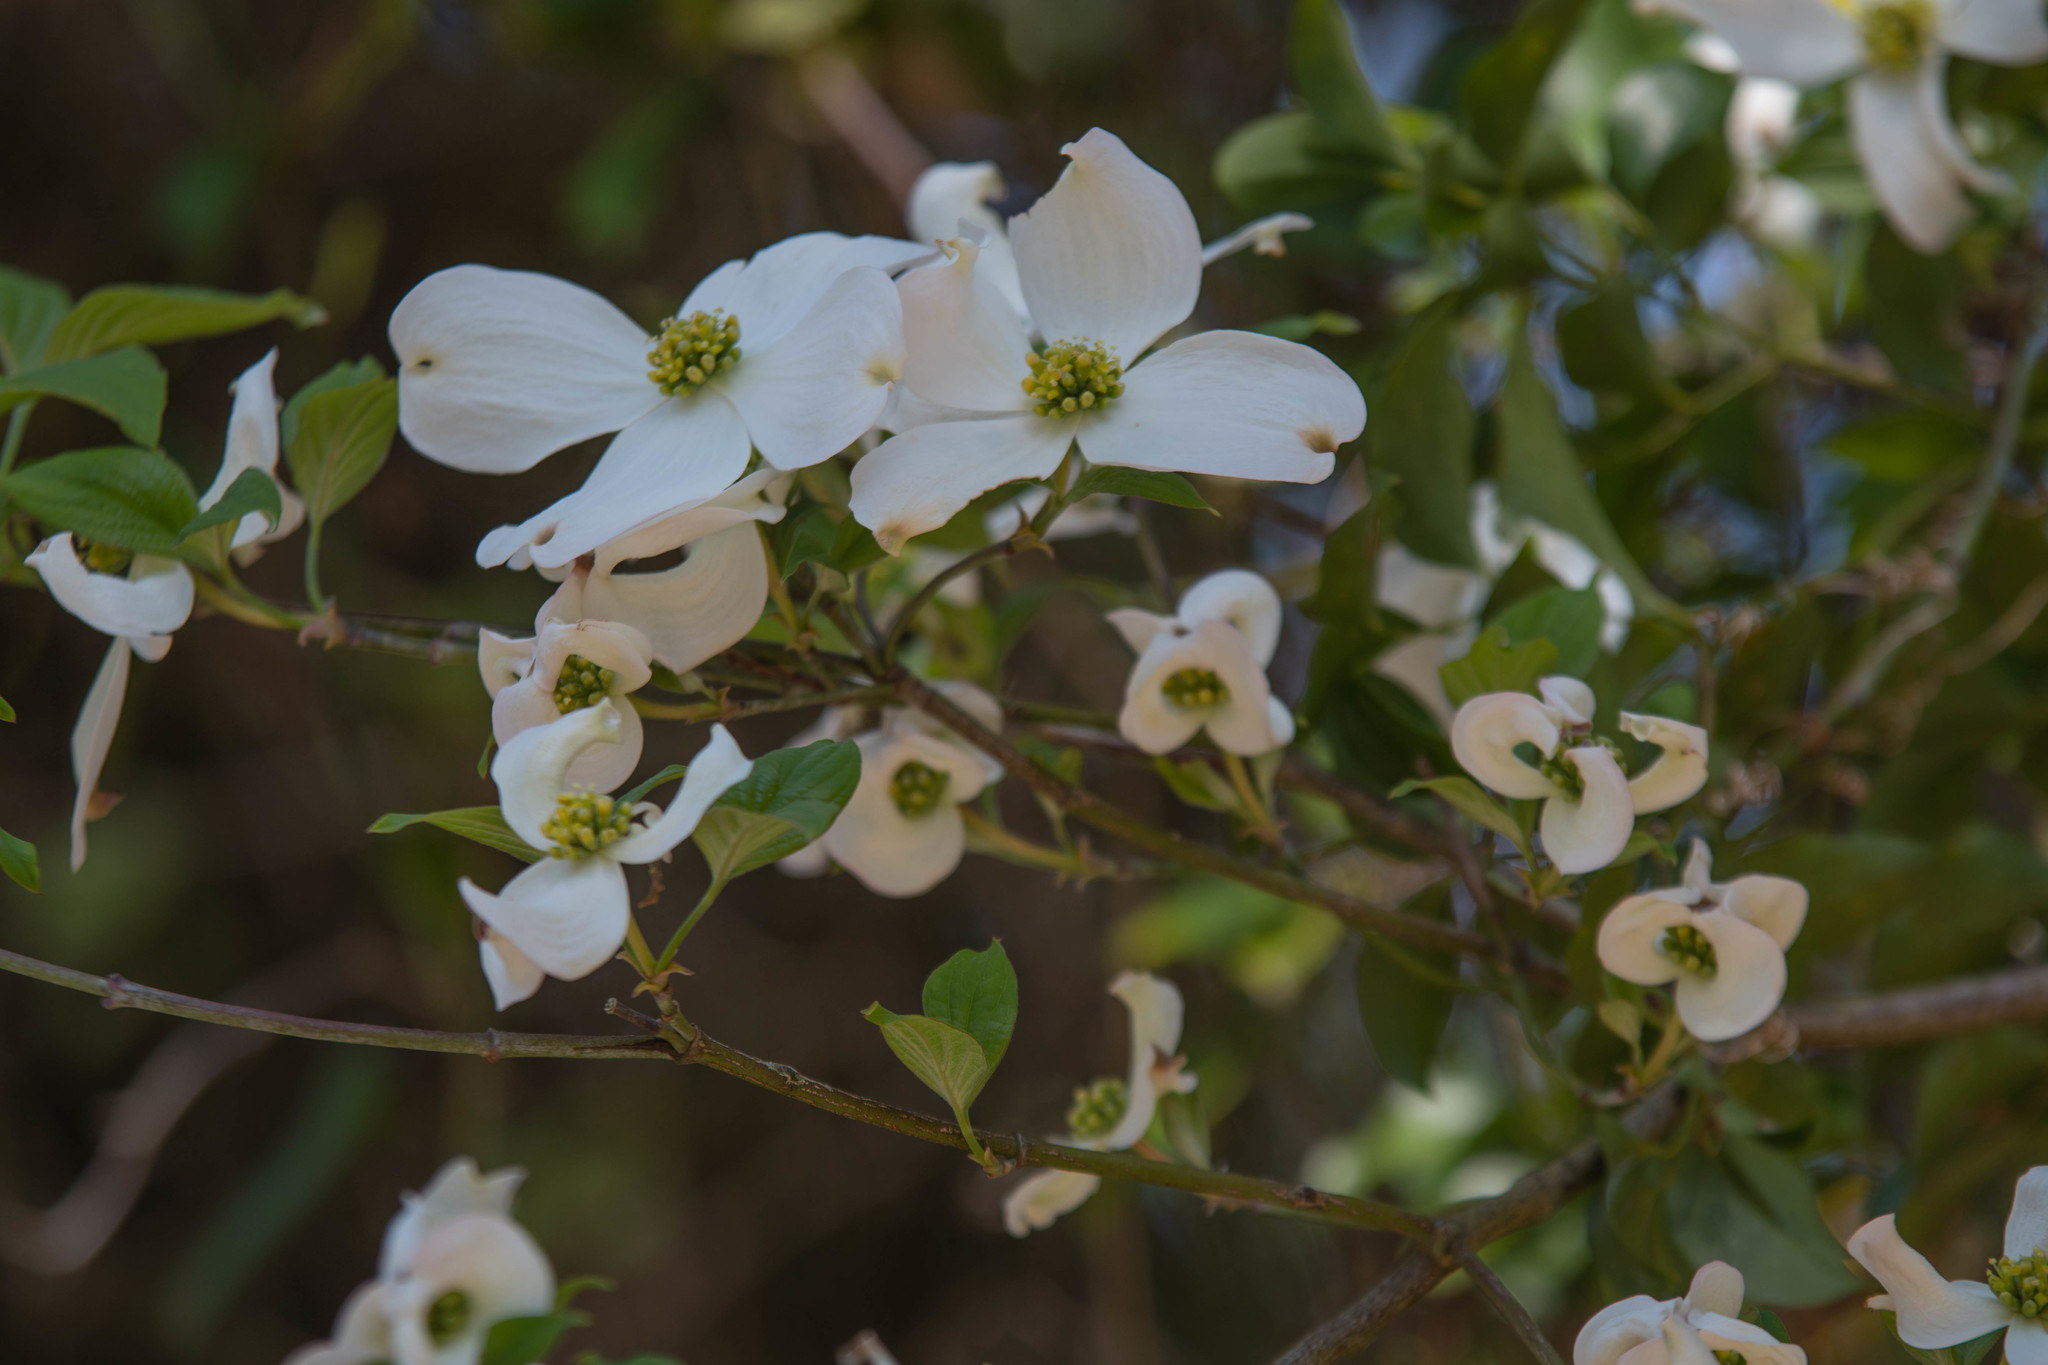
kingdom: Plantae
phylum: Tracheophyta
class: Magnoliopsida
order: Cornales
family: Cornaceae
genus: Cornus
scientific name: Cornus florida
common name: Flowering dogwood
